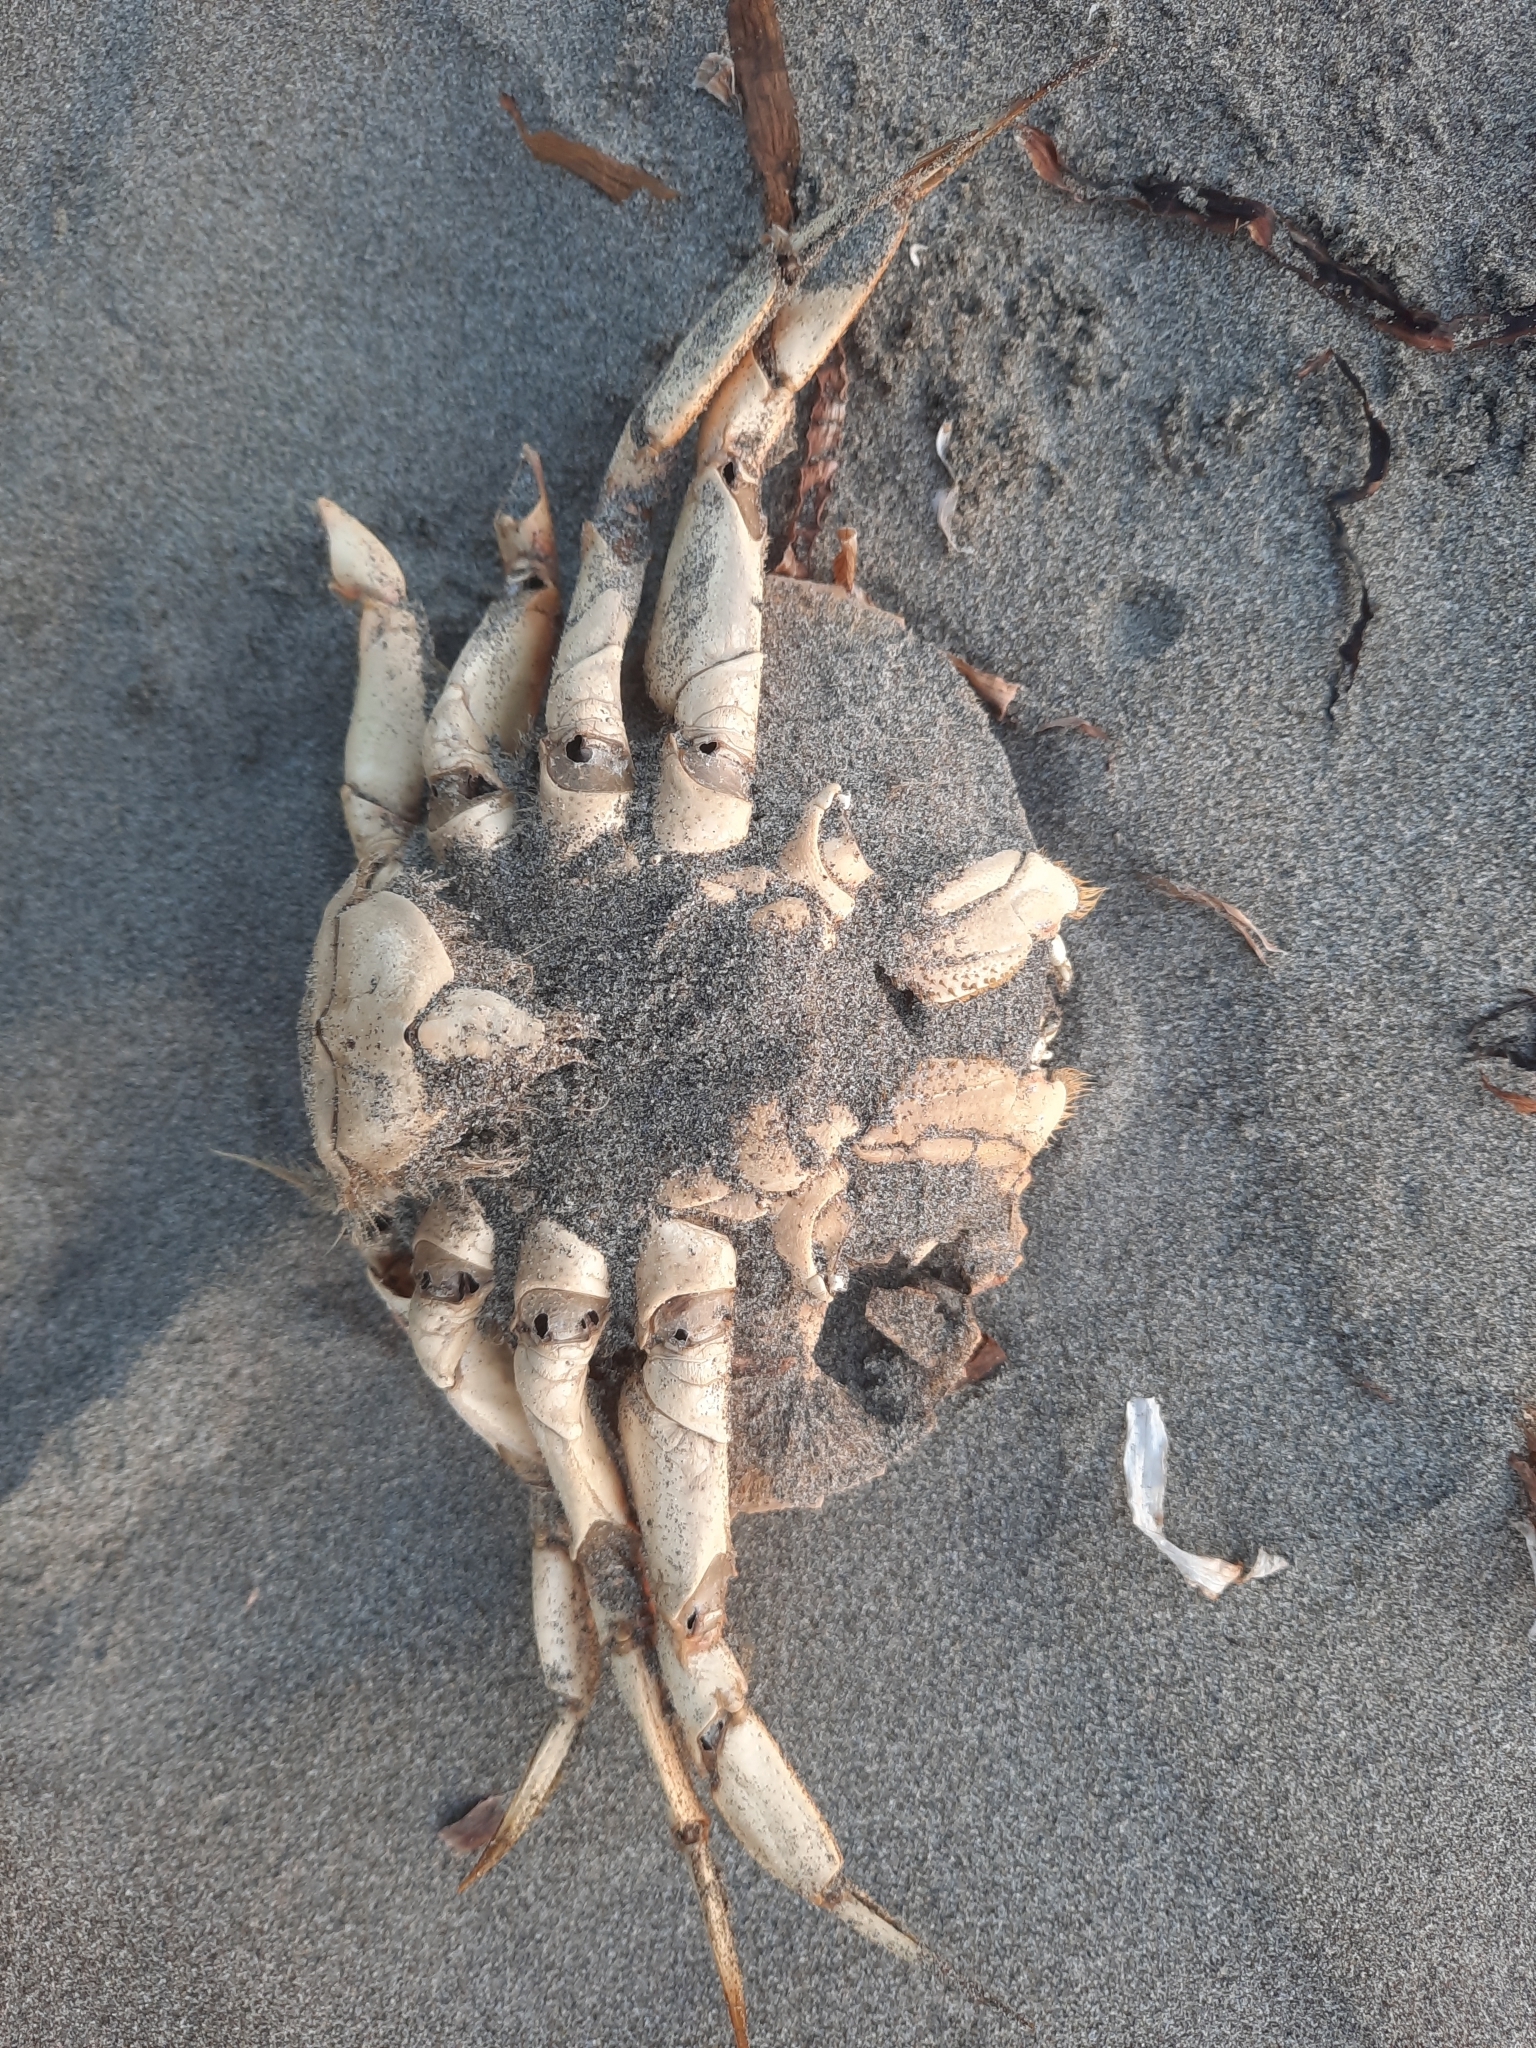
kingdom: Animalia
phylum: Arthropoda
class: Malacostraca
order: Decapoda
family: Cancridae
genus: Metacarcinus
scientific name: Metacarcinus magister
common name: Californian crab
